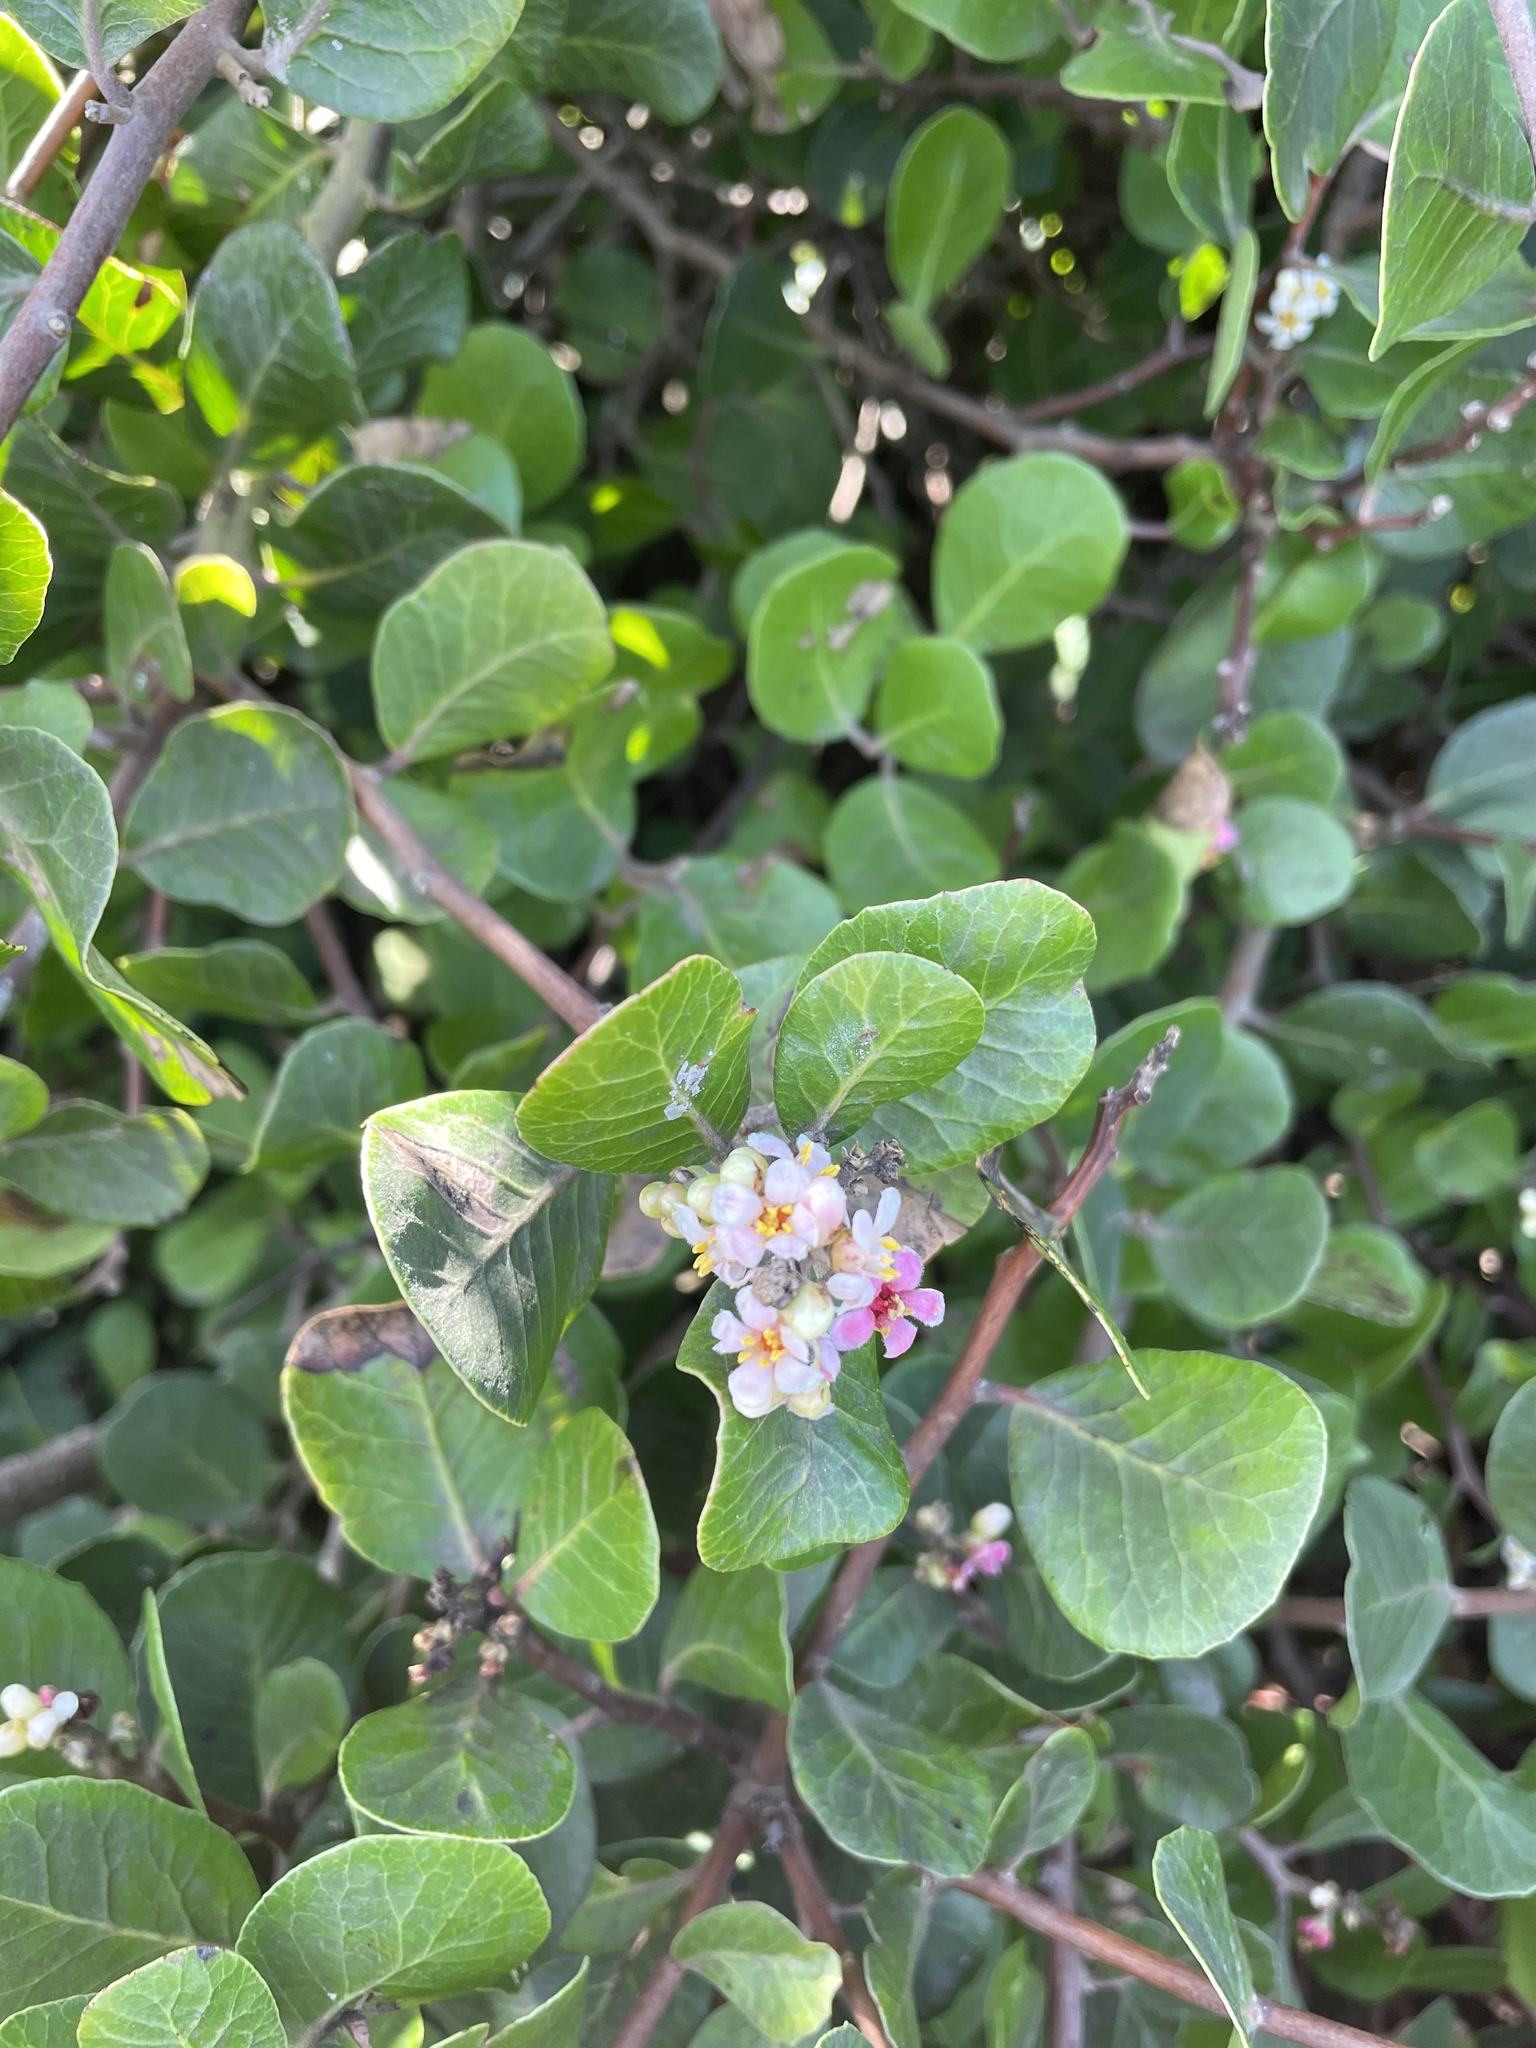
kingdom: Plantae
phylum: Tracheophyta
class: Magnoliopsida
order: Sapindales
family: Anacardiaceae
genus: Rhus
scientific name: Rhus integrifolia
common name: Lemonade sumac
